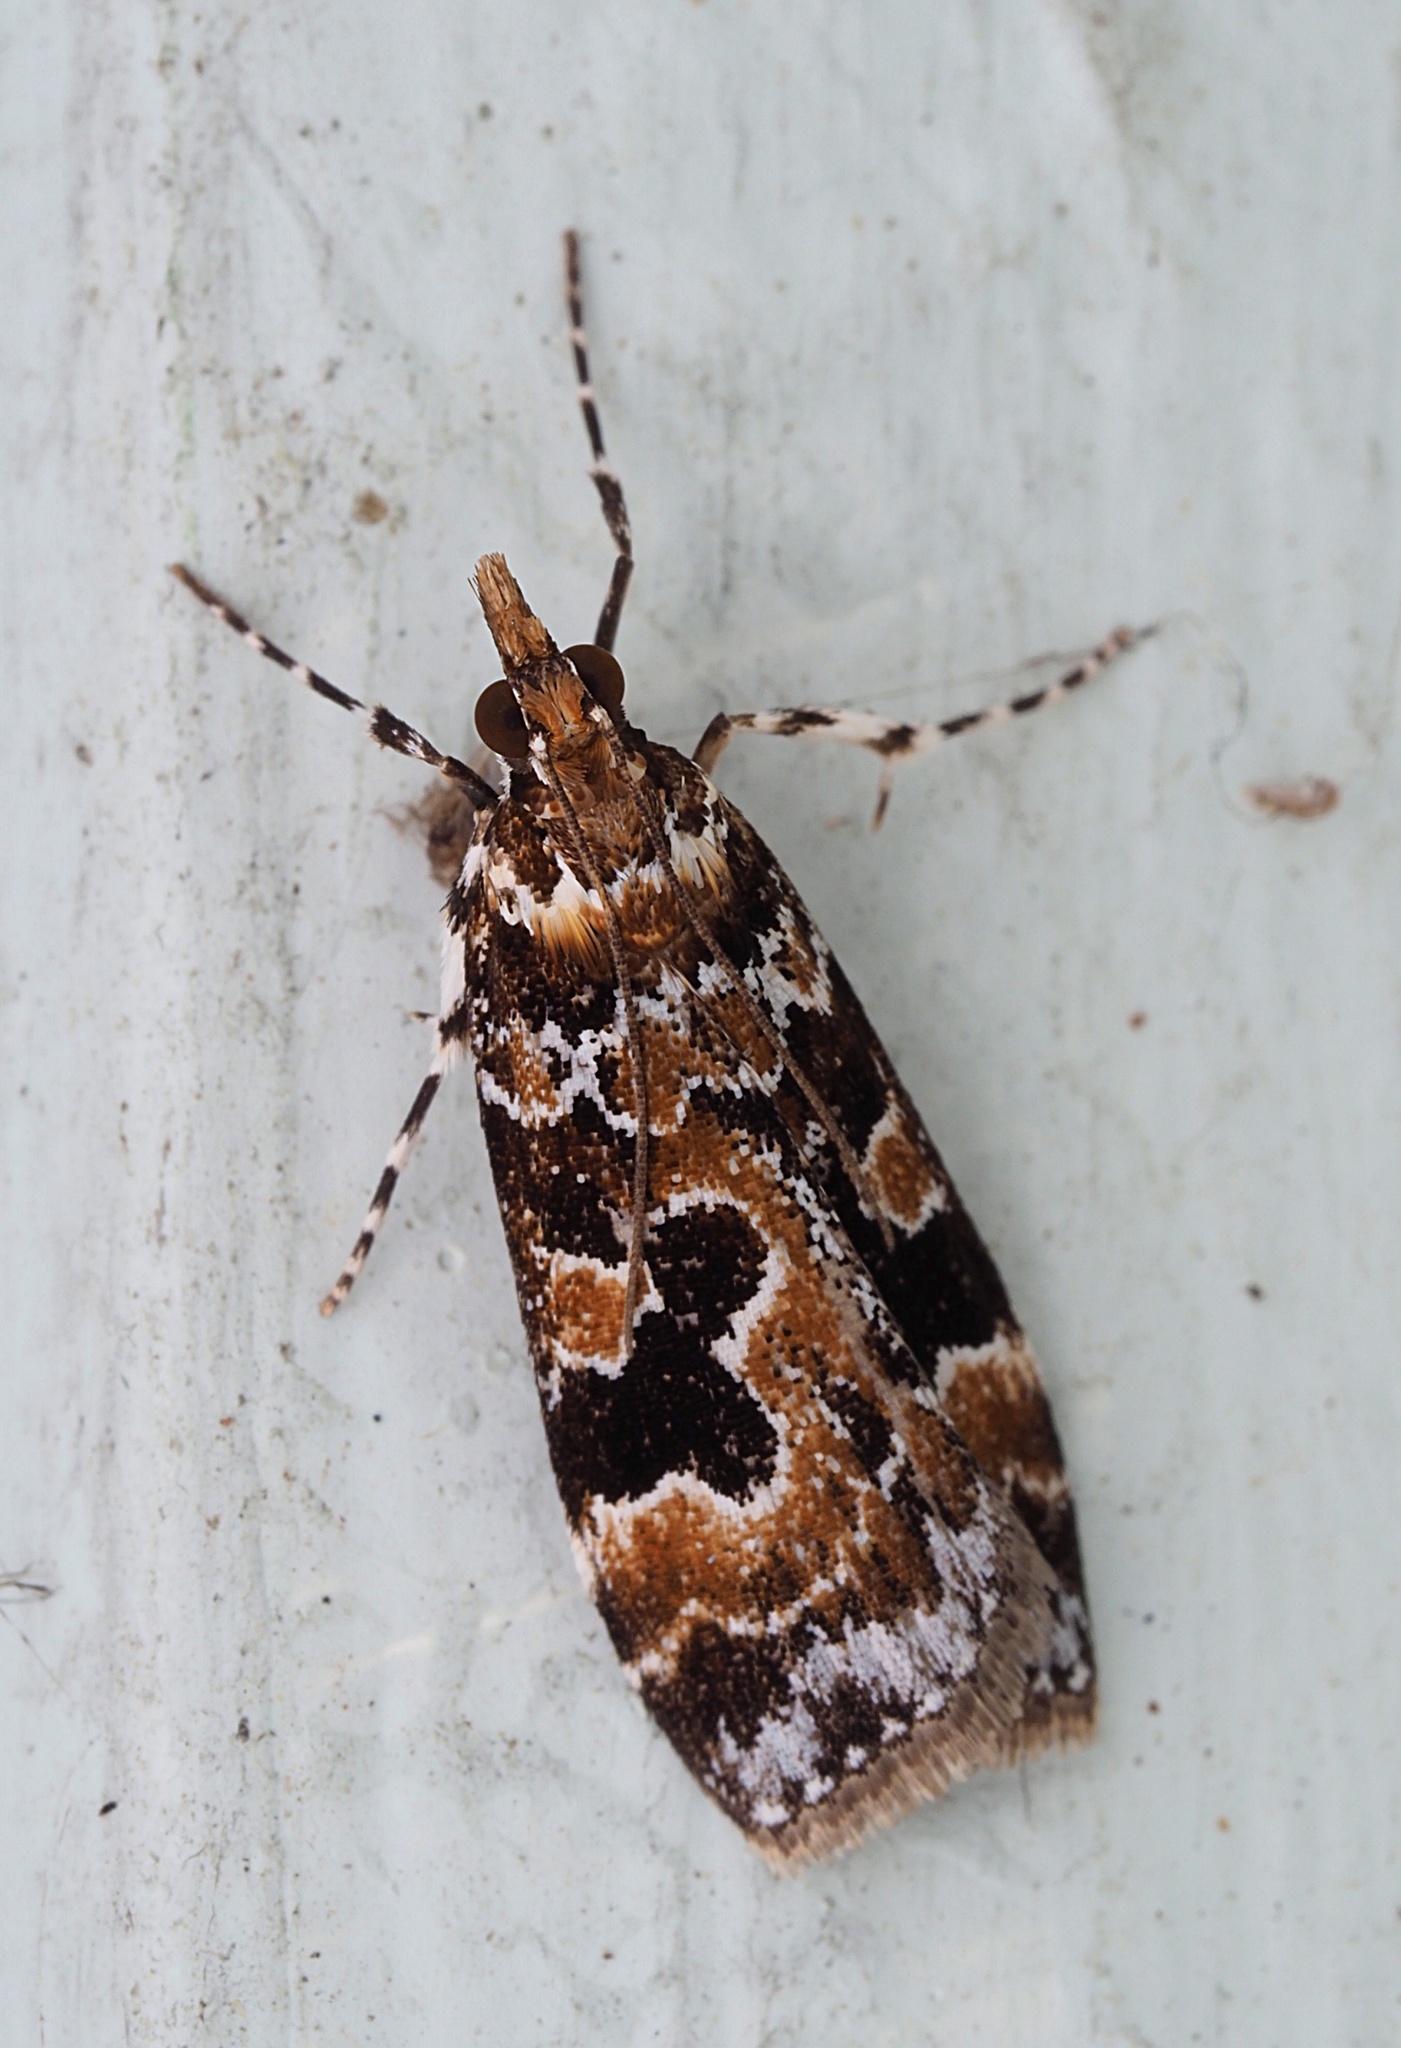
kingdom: Animalia
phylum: Arthropoda
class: Insecta
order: Lepidoptera
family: Crambidae
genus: Scoparia
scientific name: Scoparia ustimacula
